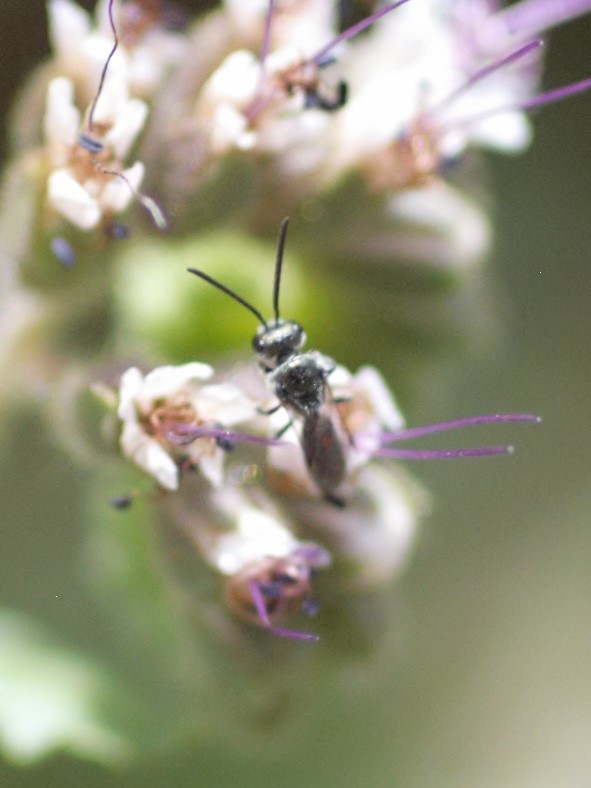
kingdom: Animalia
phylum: Arthropoda
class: Insecta
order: Hymenoptera
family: Halictidae
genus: Dialictus
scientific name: Dialictus
